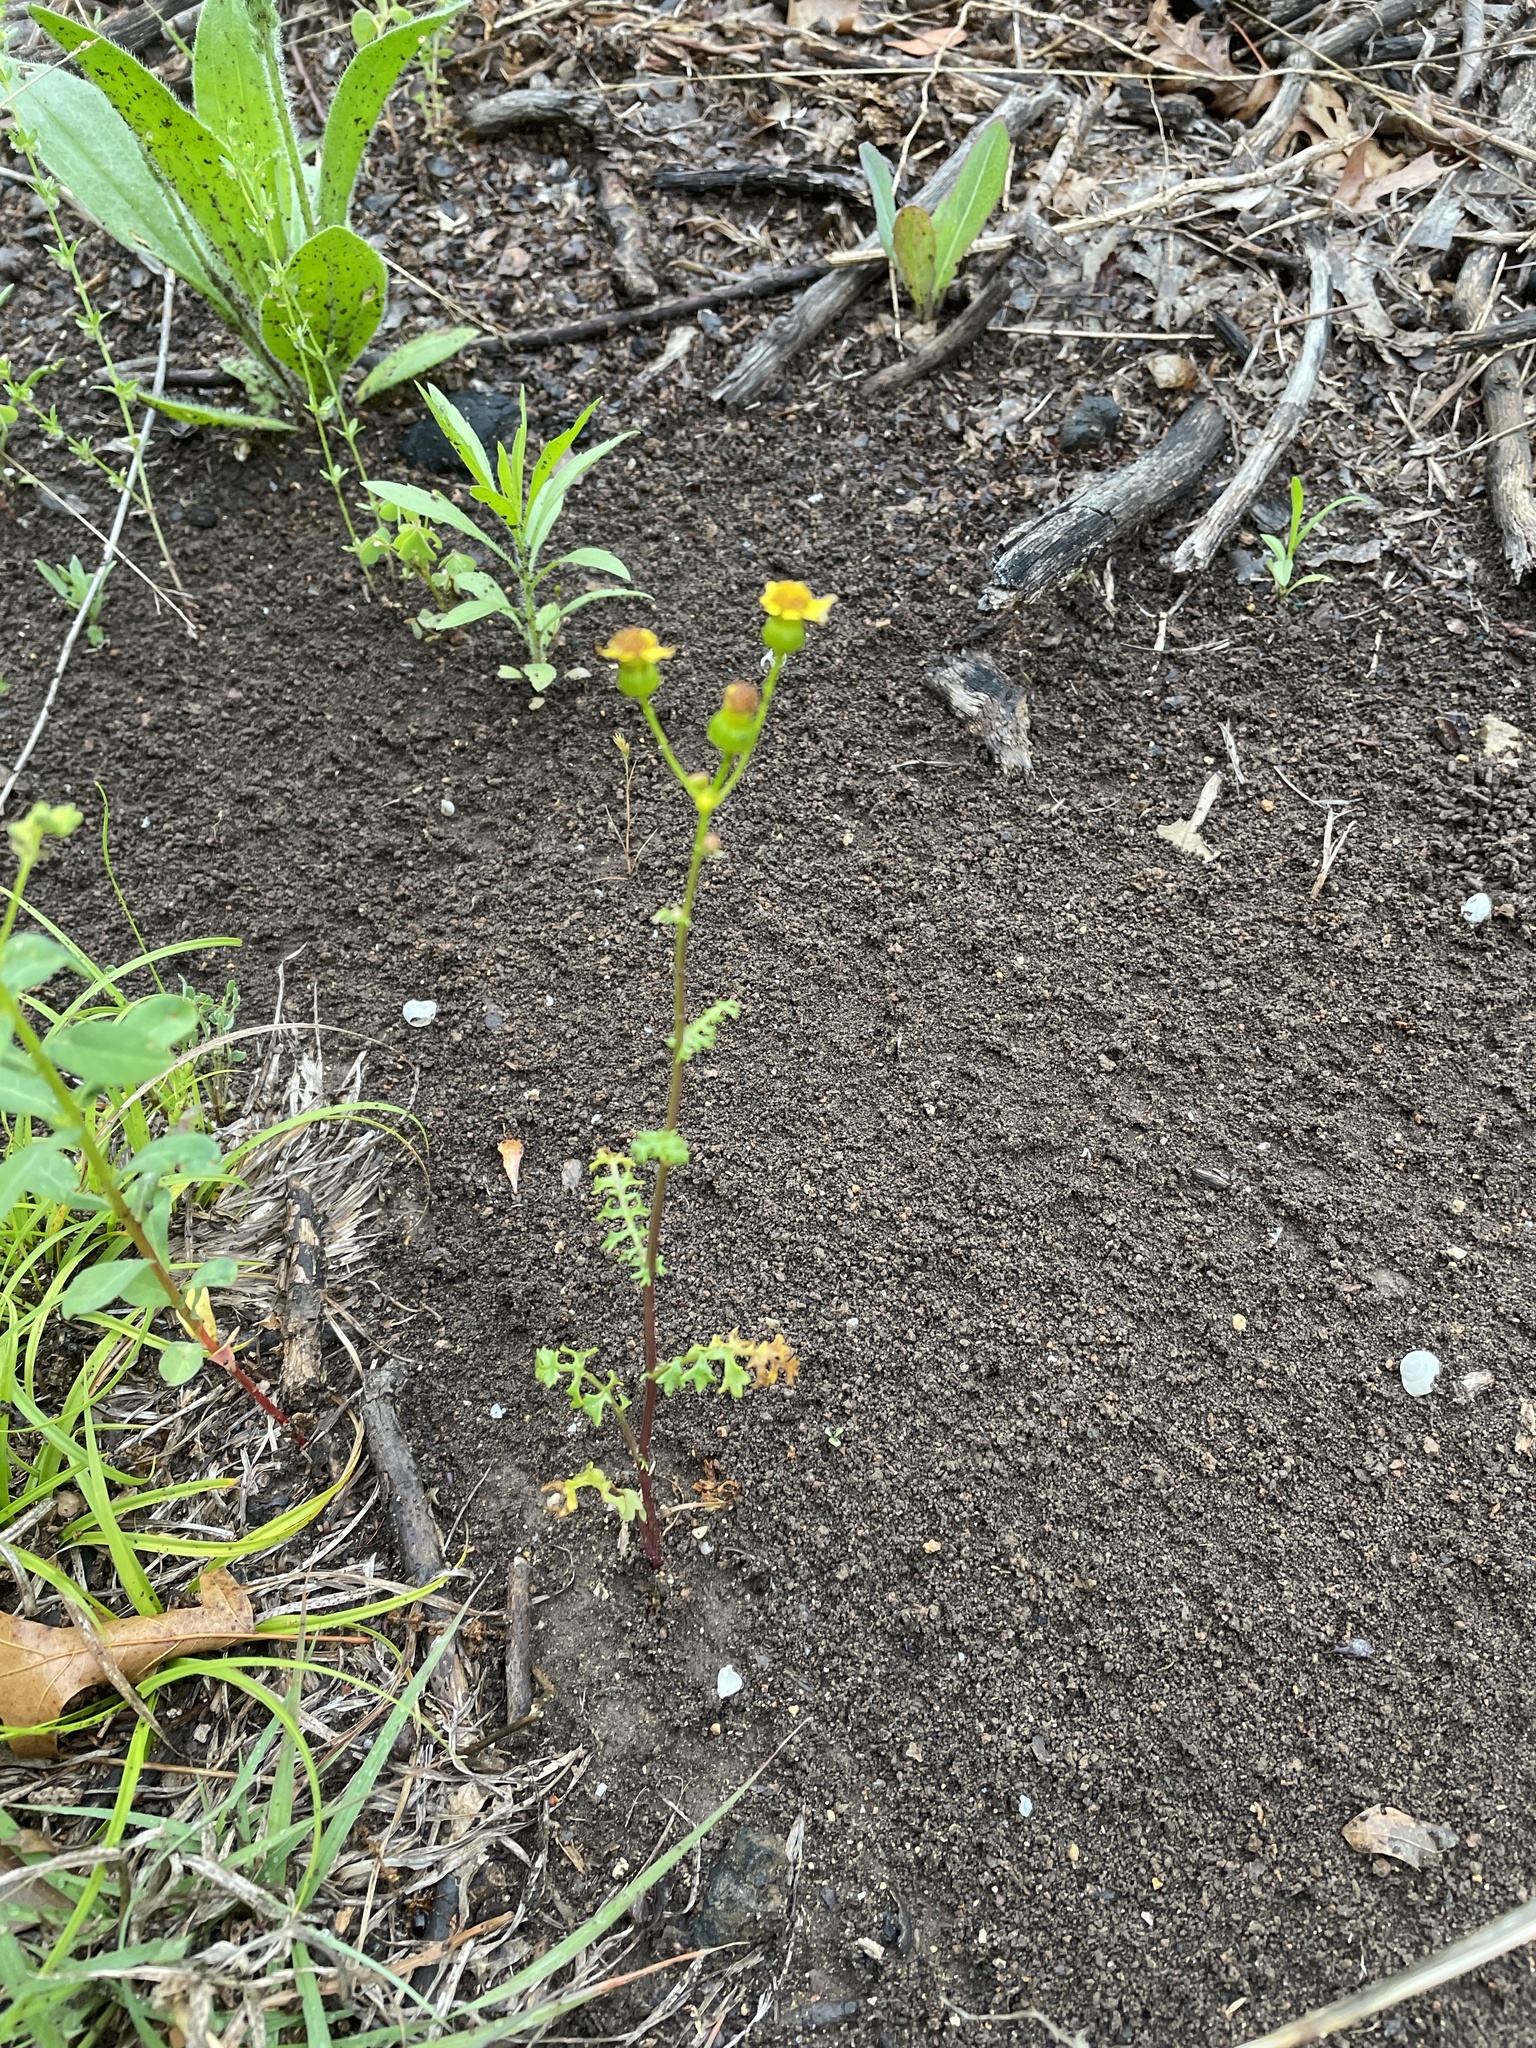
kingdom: Plantae
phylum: Tracheophyta
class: Magnoliopsida
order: Asterales
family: Asteraceae
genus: Packera
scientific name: Packera tampicana
